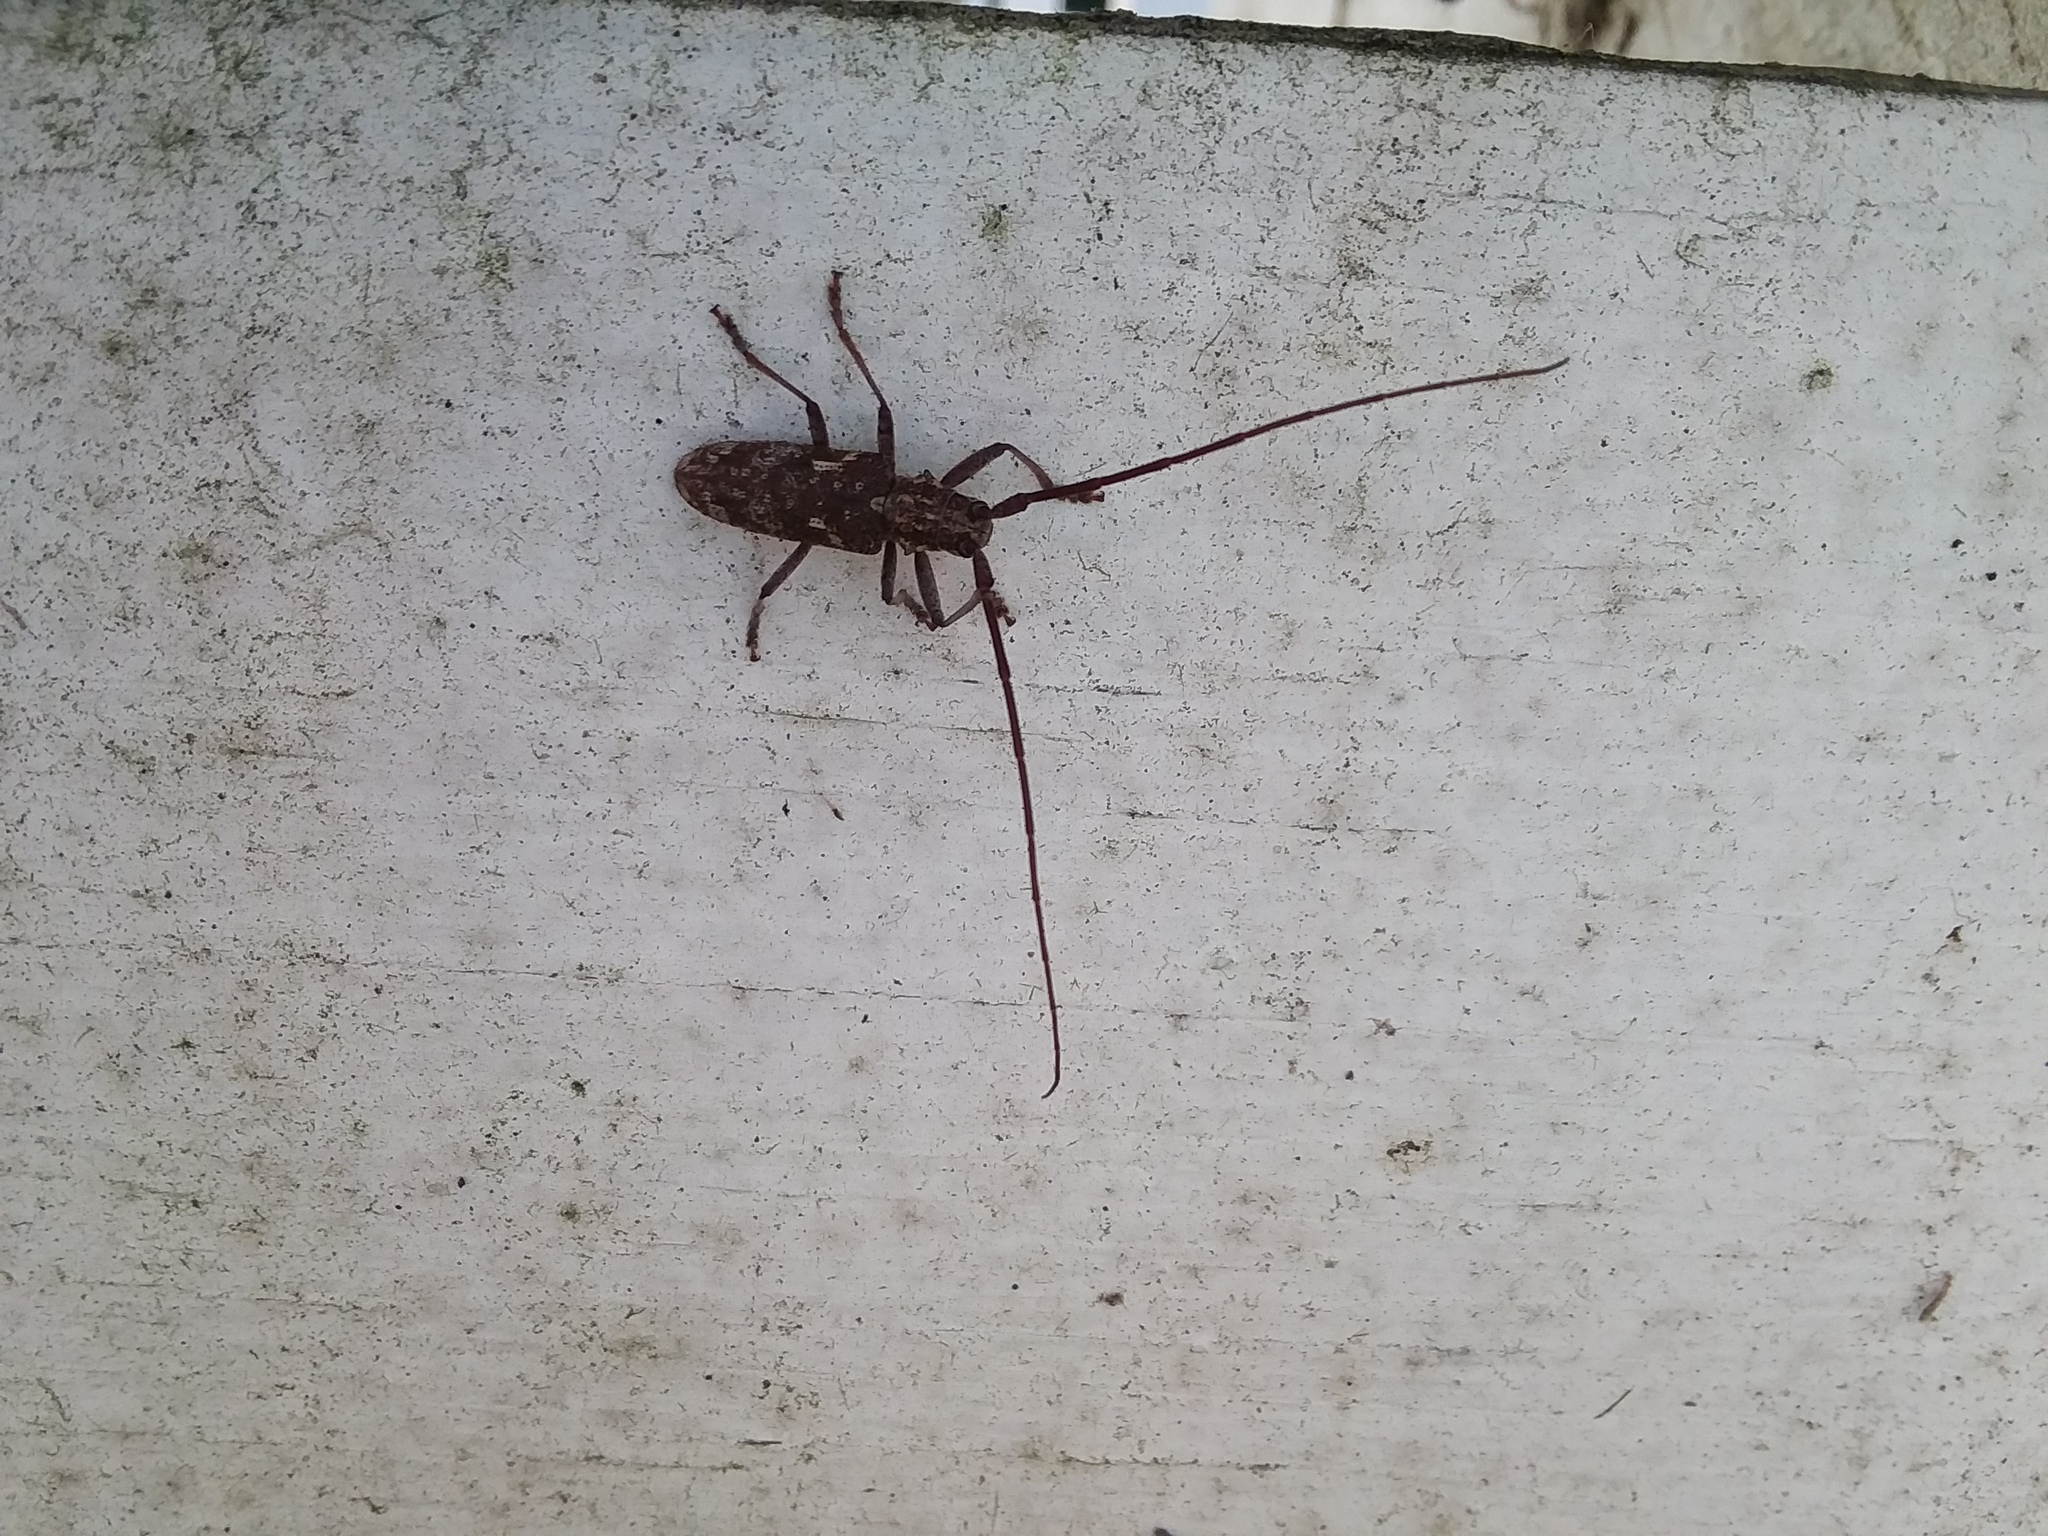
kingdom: Animalia
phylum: Arthropoda
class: Insecta
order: Coleoptera
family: Cerambycidae
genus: Monochamus
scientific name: Monochamus carolinensis
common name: Carolina pine sawyer
